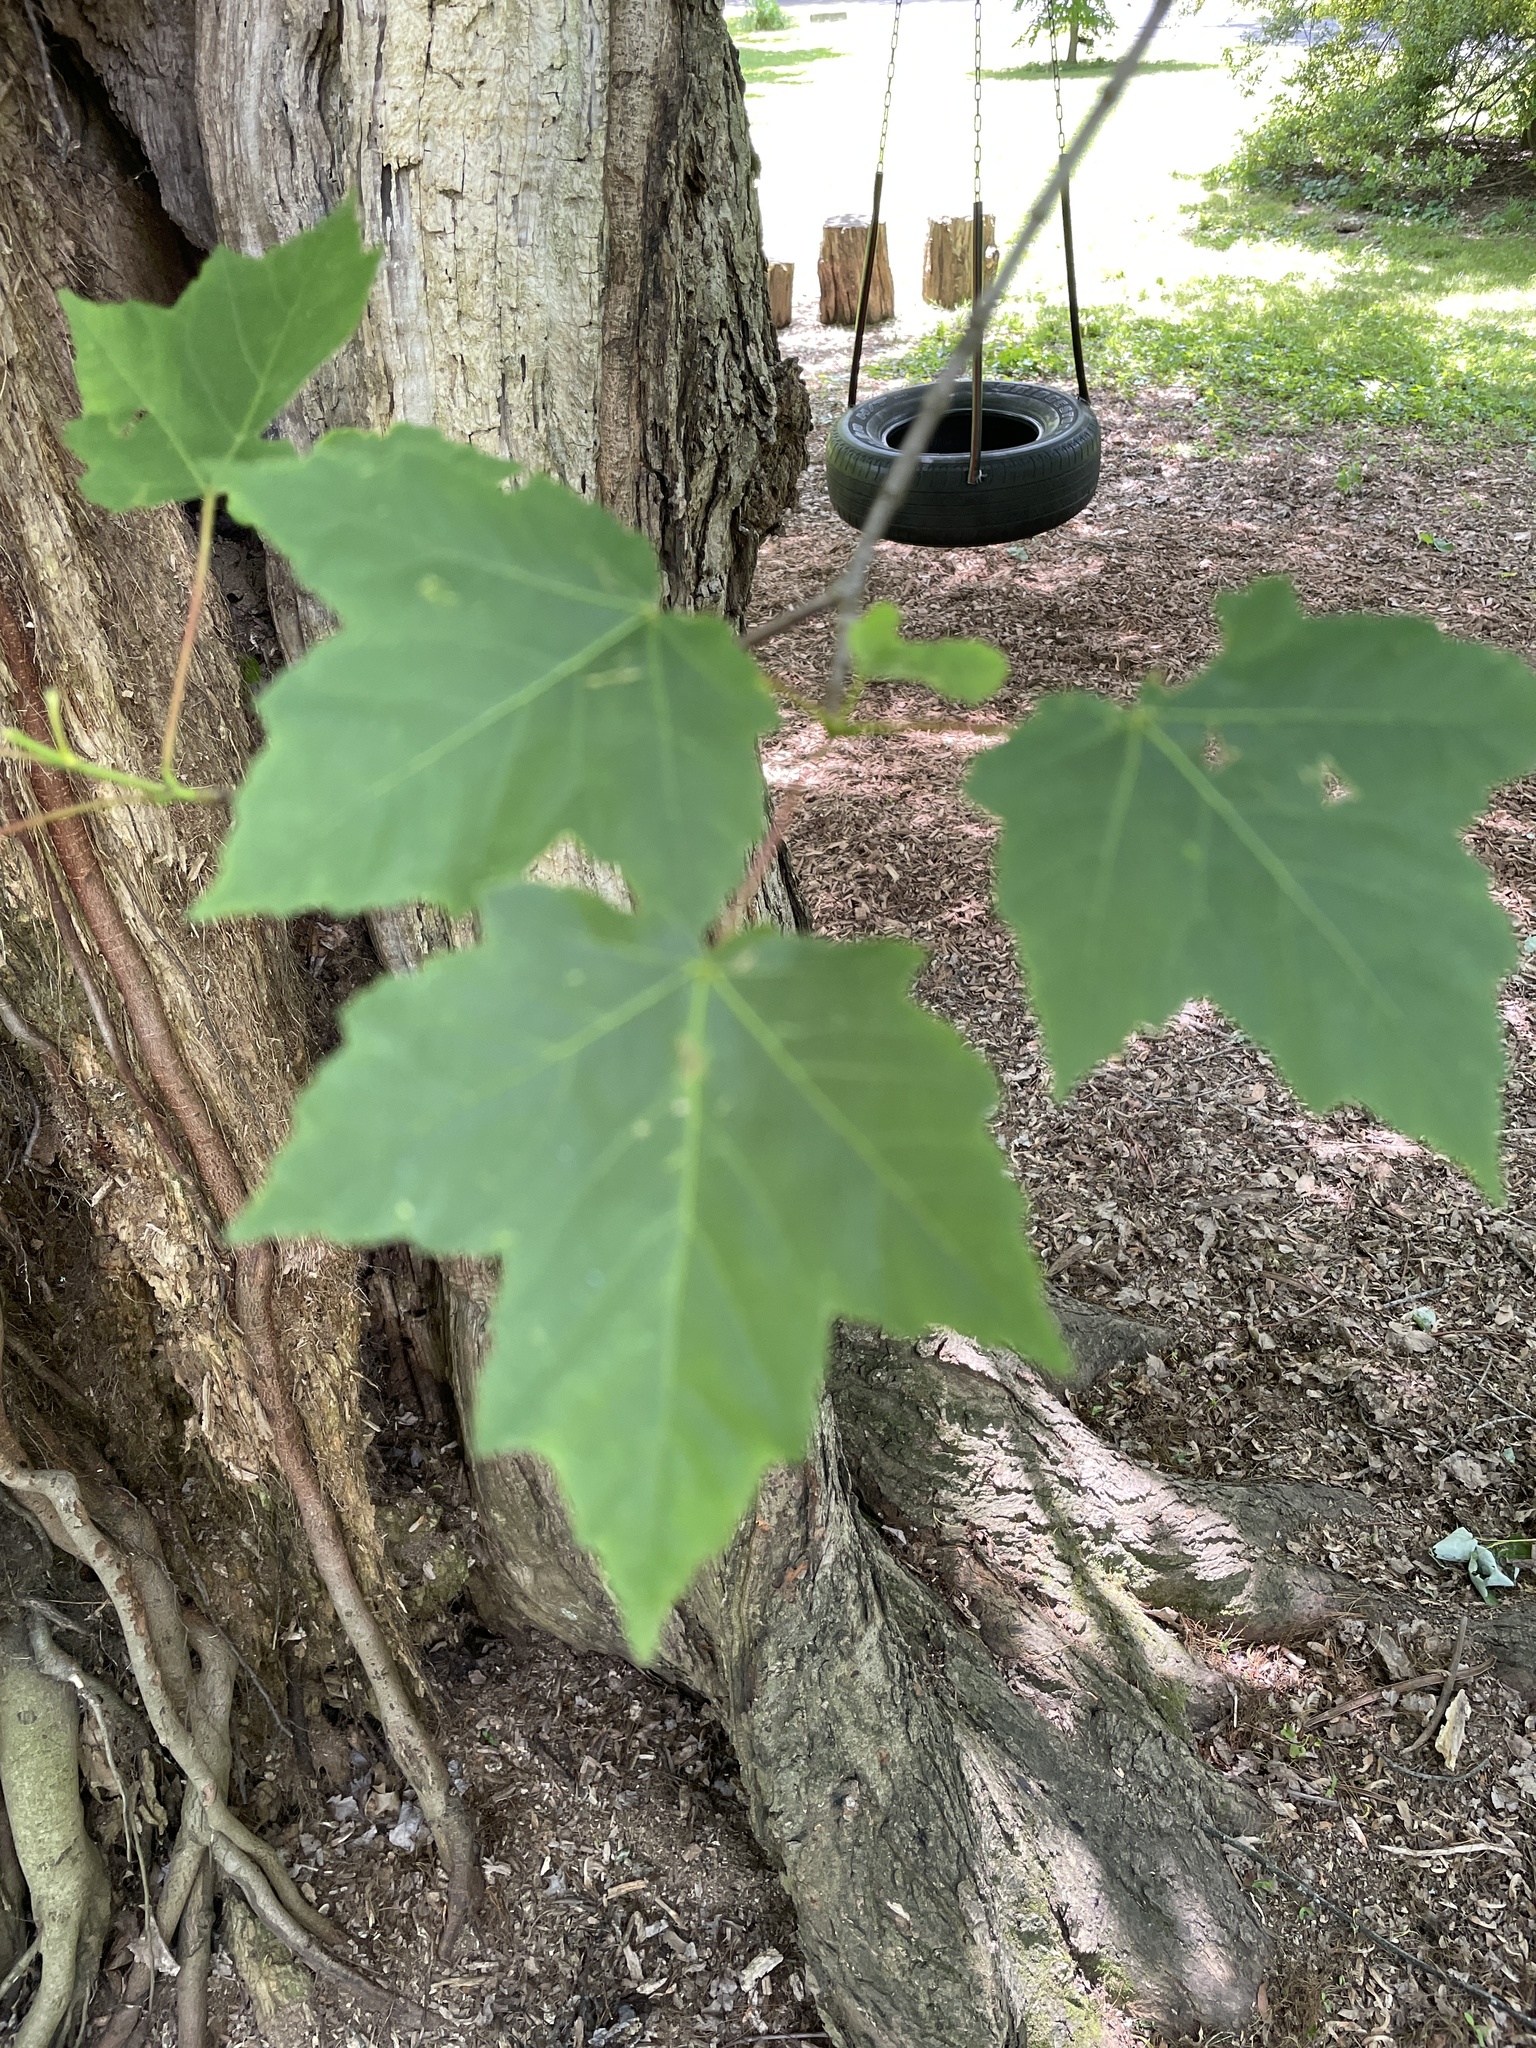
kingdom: Plantae
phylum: Tracheophyta
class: Magnoliopsida
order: Sapindales
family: Sapindaceae
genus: Acer
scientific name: Acer rubrum
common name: Red maple
